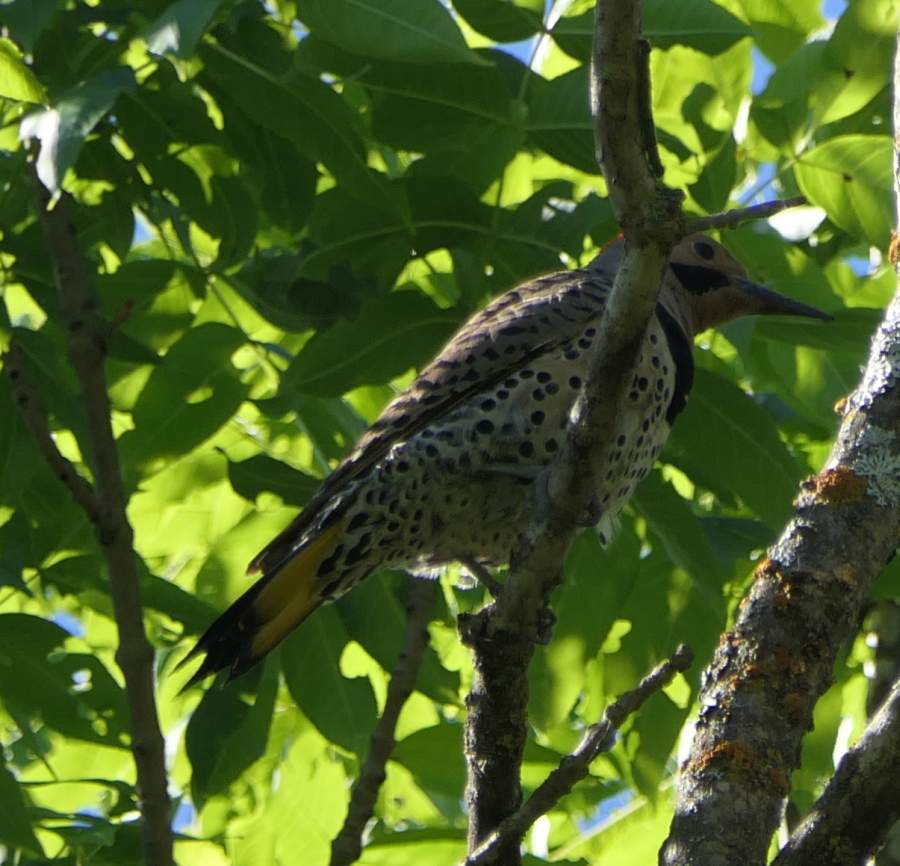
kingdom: Animalia
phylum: Chordata
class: Aves
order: Piciformes
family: Picidae
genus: Colaptes
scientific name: Colaptes auratus
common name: Northern flicker
